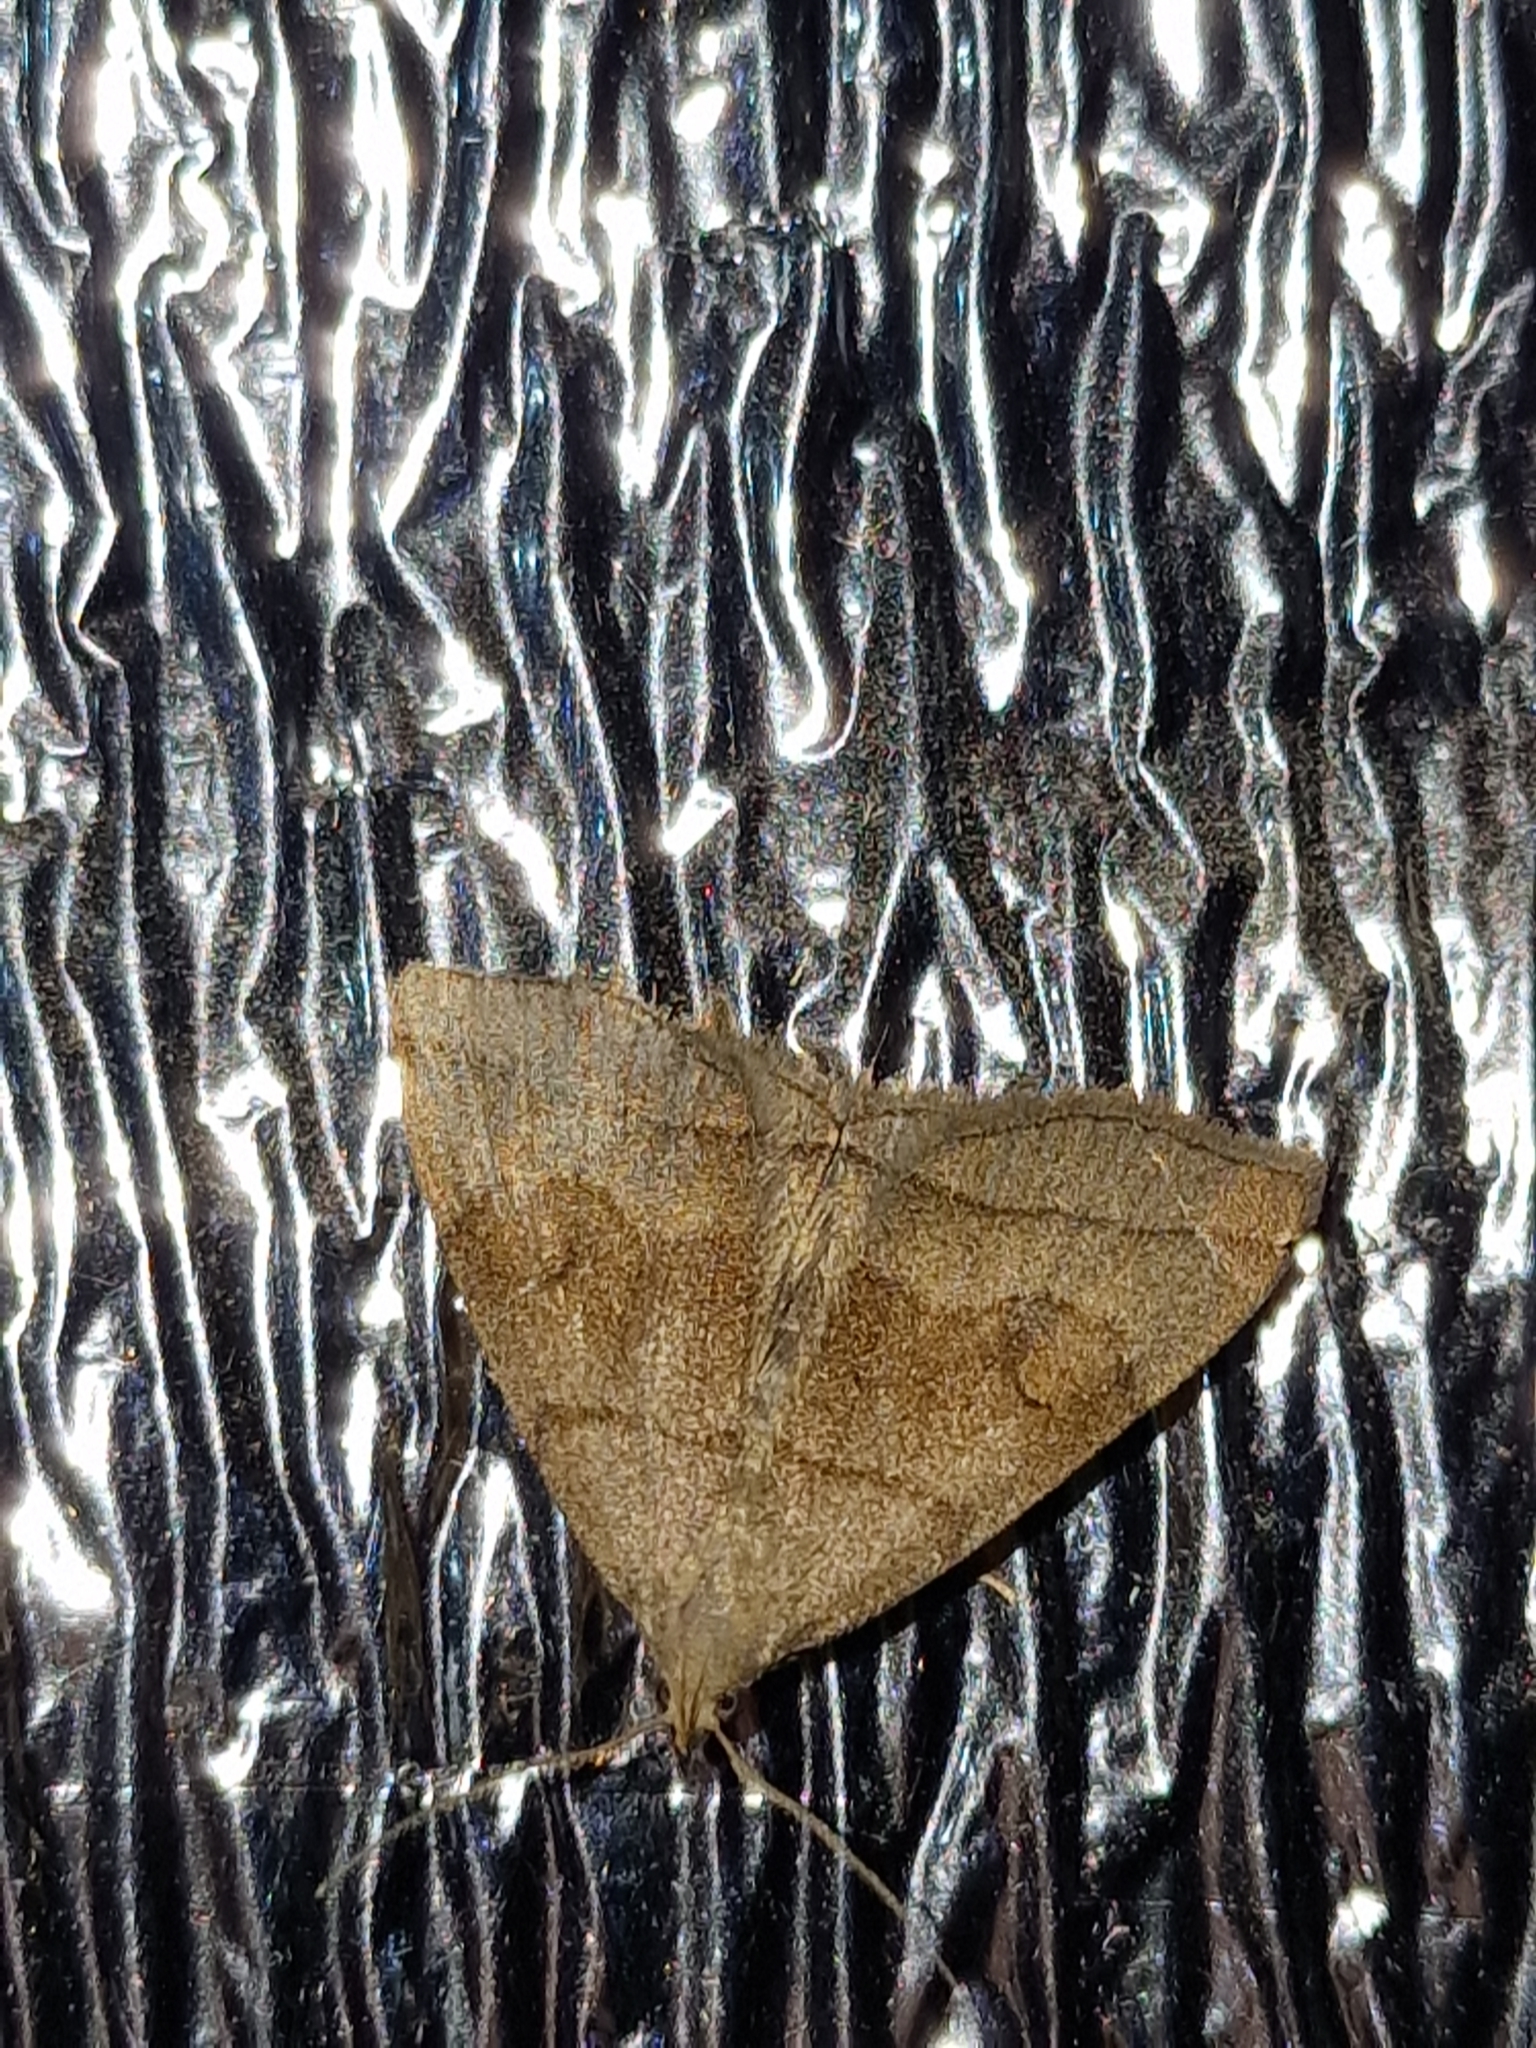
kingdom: Animalia
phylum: Arthropoda
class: Insecta
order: Lepidoptera
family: Erebidae
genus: Herminia
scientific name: Herminia tarsicrinalis
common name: Shaded fan-foot
